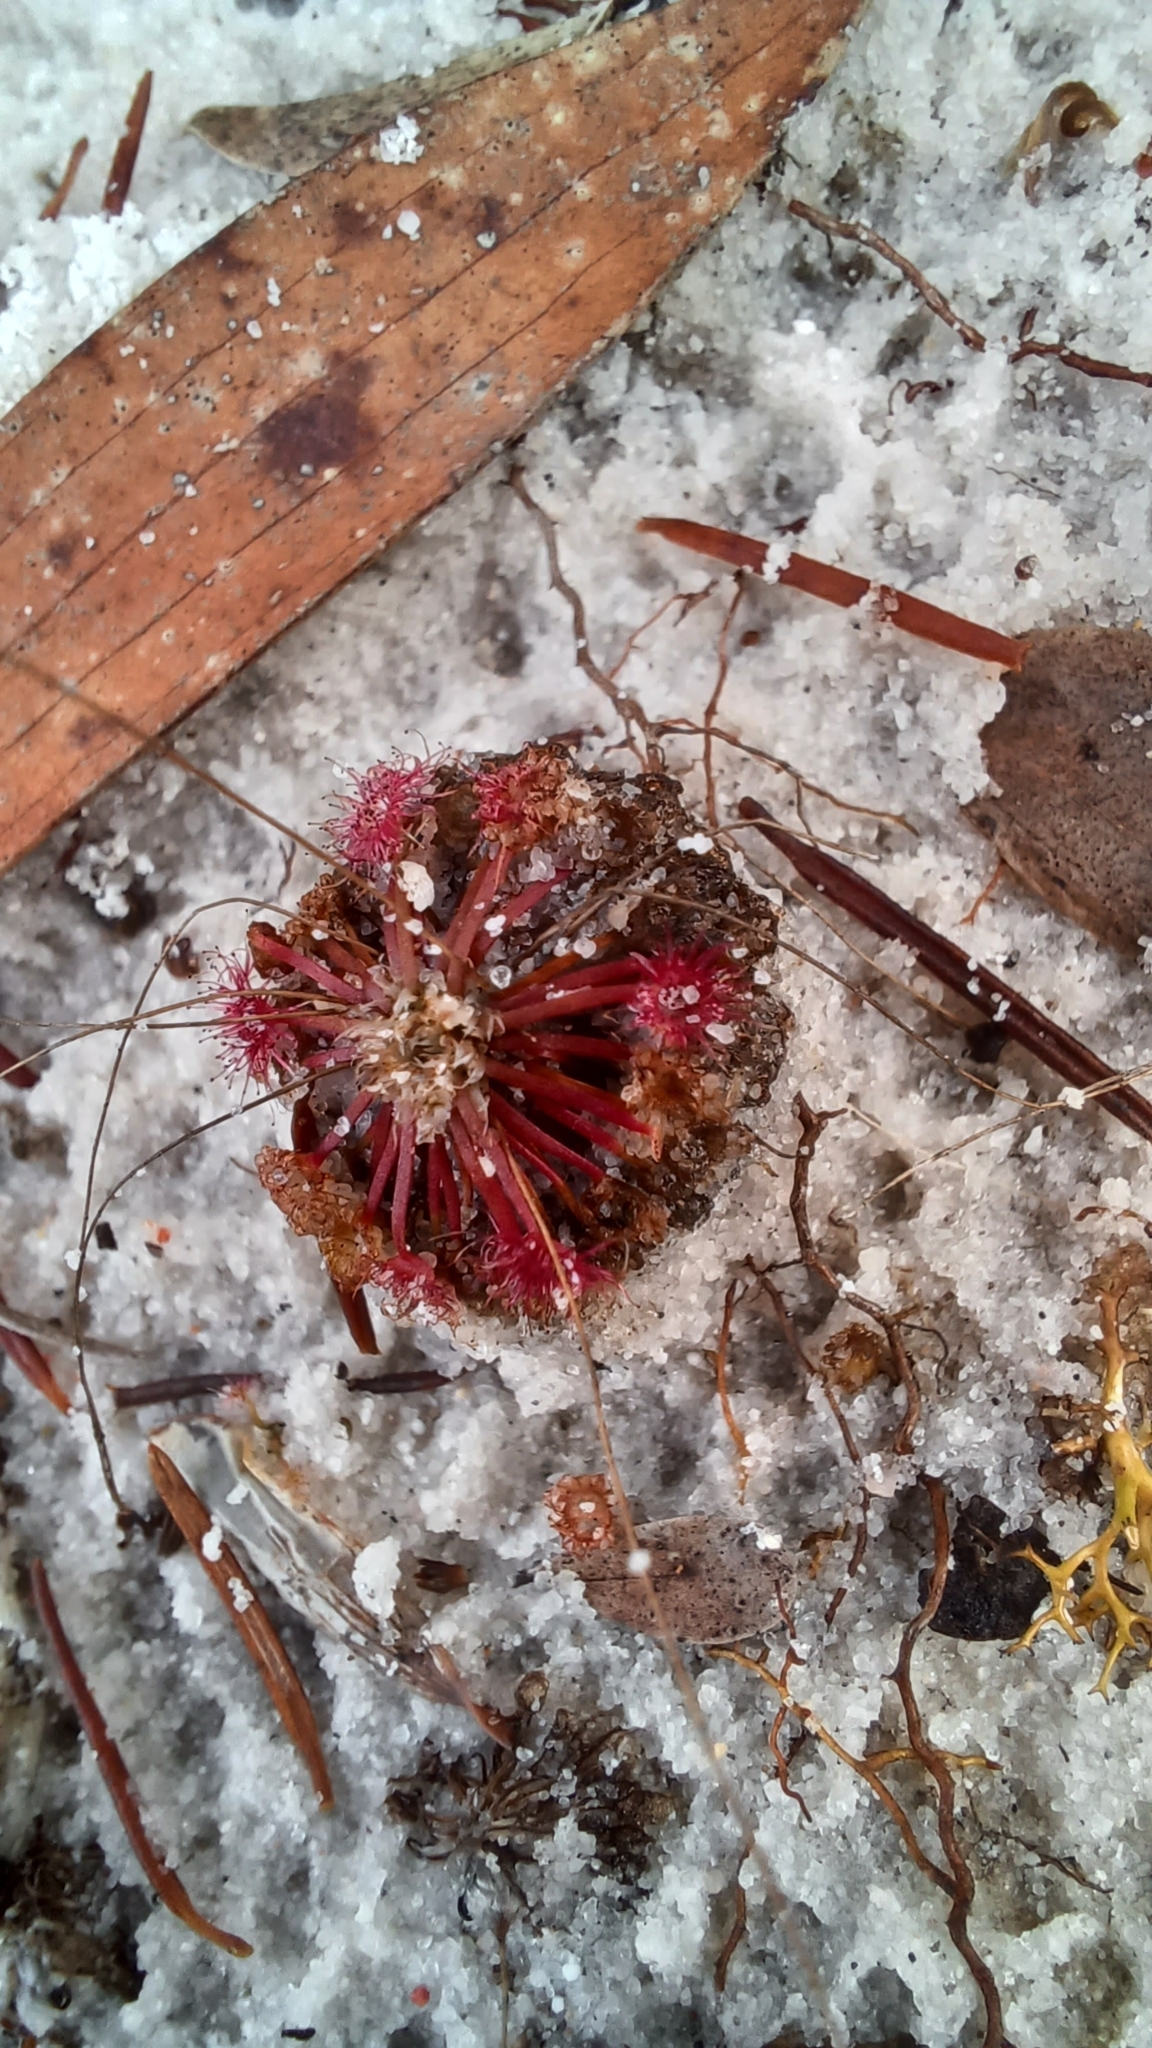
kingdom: Plantae
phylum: Tracheophyta
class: Magnoliopsida
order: Caryophyllales
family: Droseraceae
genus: Drosera
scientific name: Drosera pygmaea
